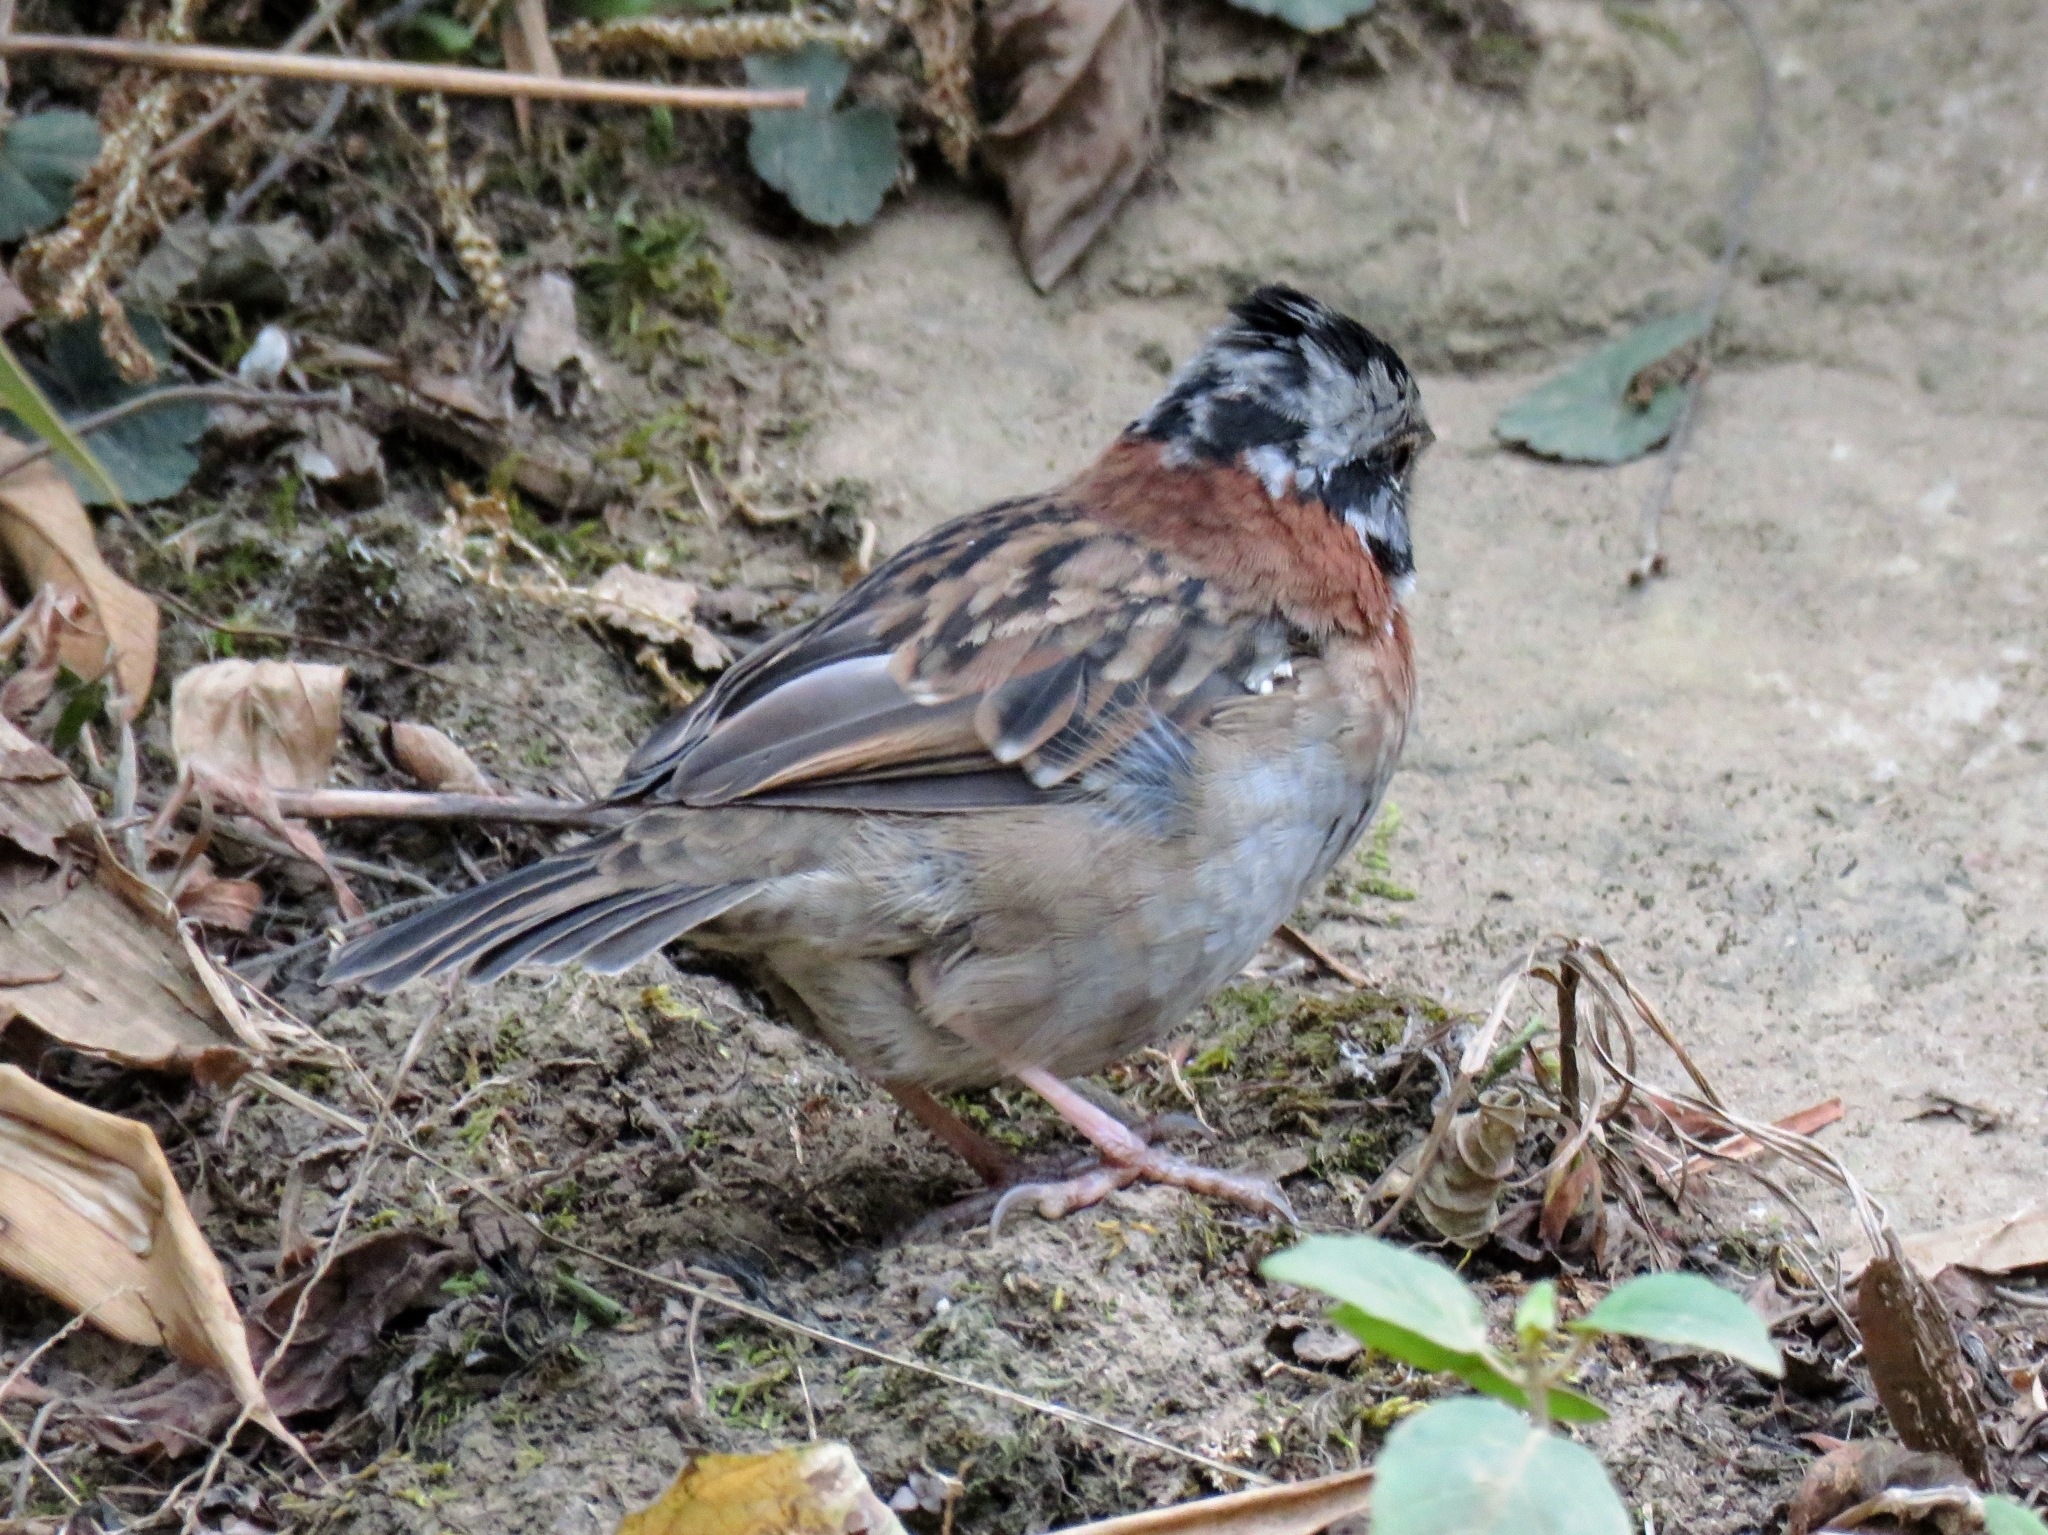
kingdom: Animalia
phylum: Chordata
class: Aves
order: Passeriformes
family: Passerellidae
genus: Zonotrichia
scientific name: Zonotrichia capensis
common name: Rufous-collared sparrow
